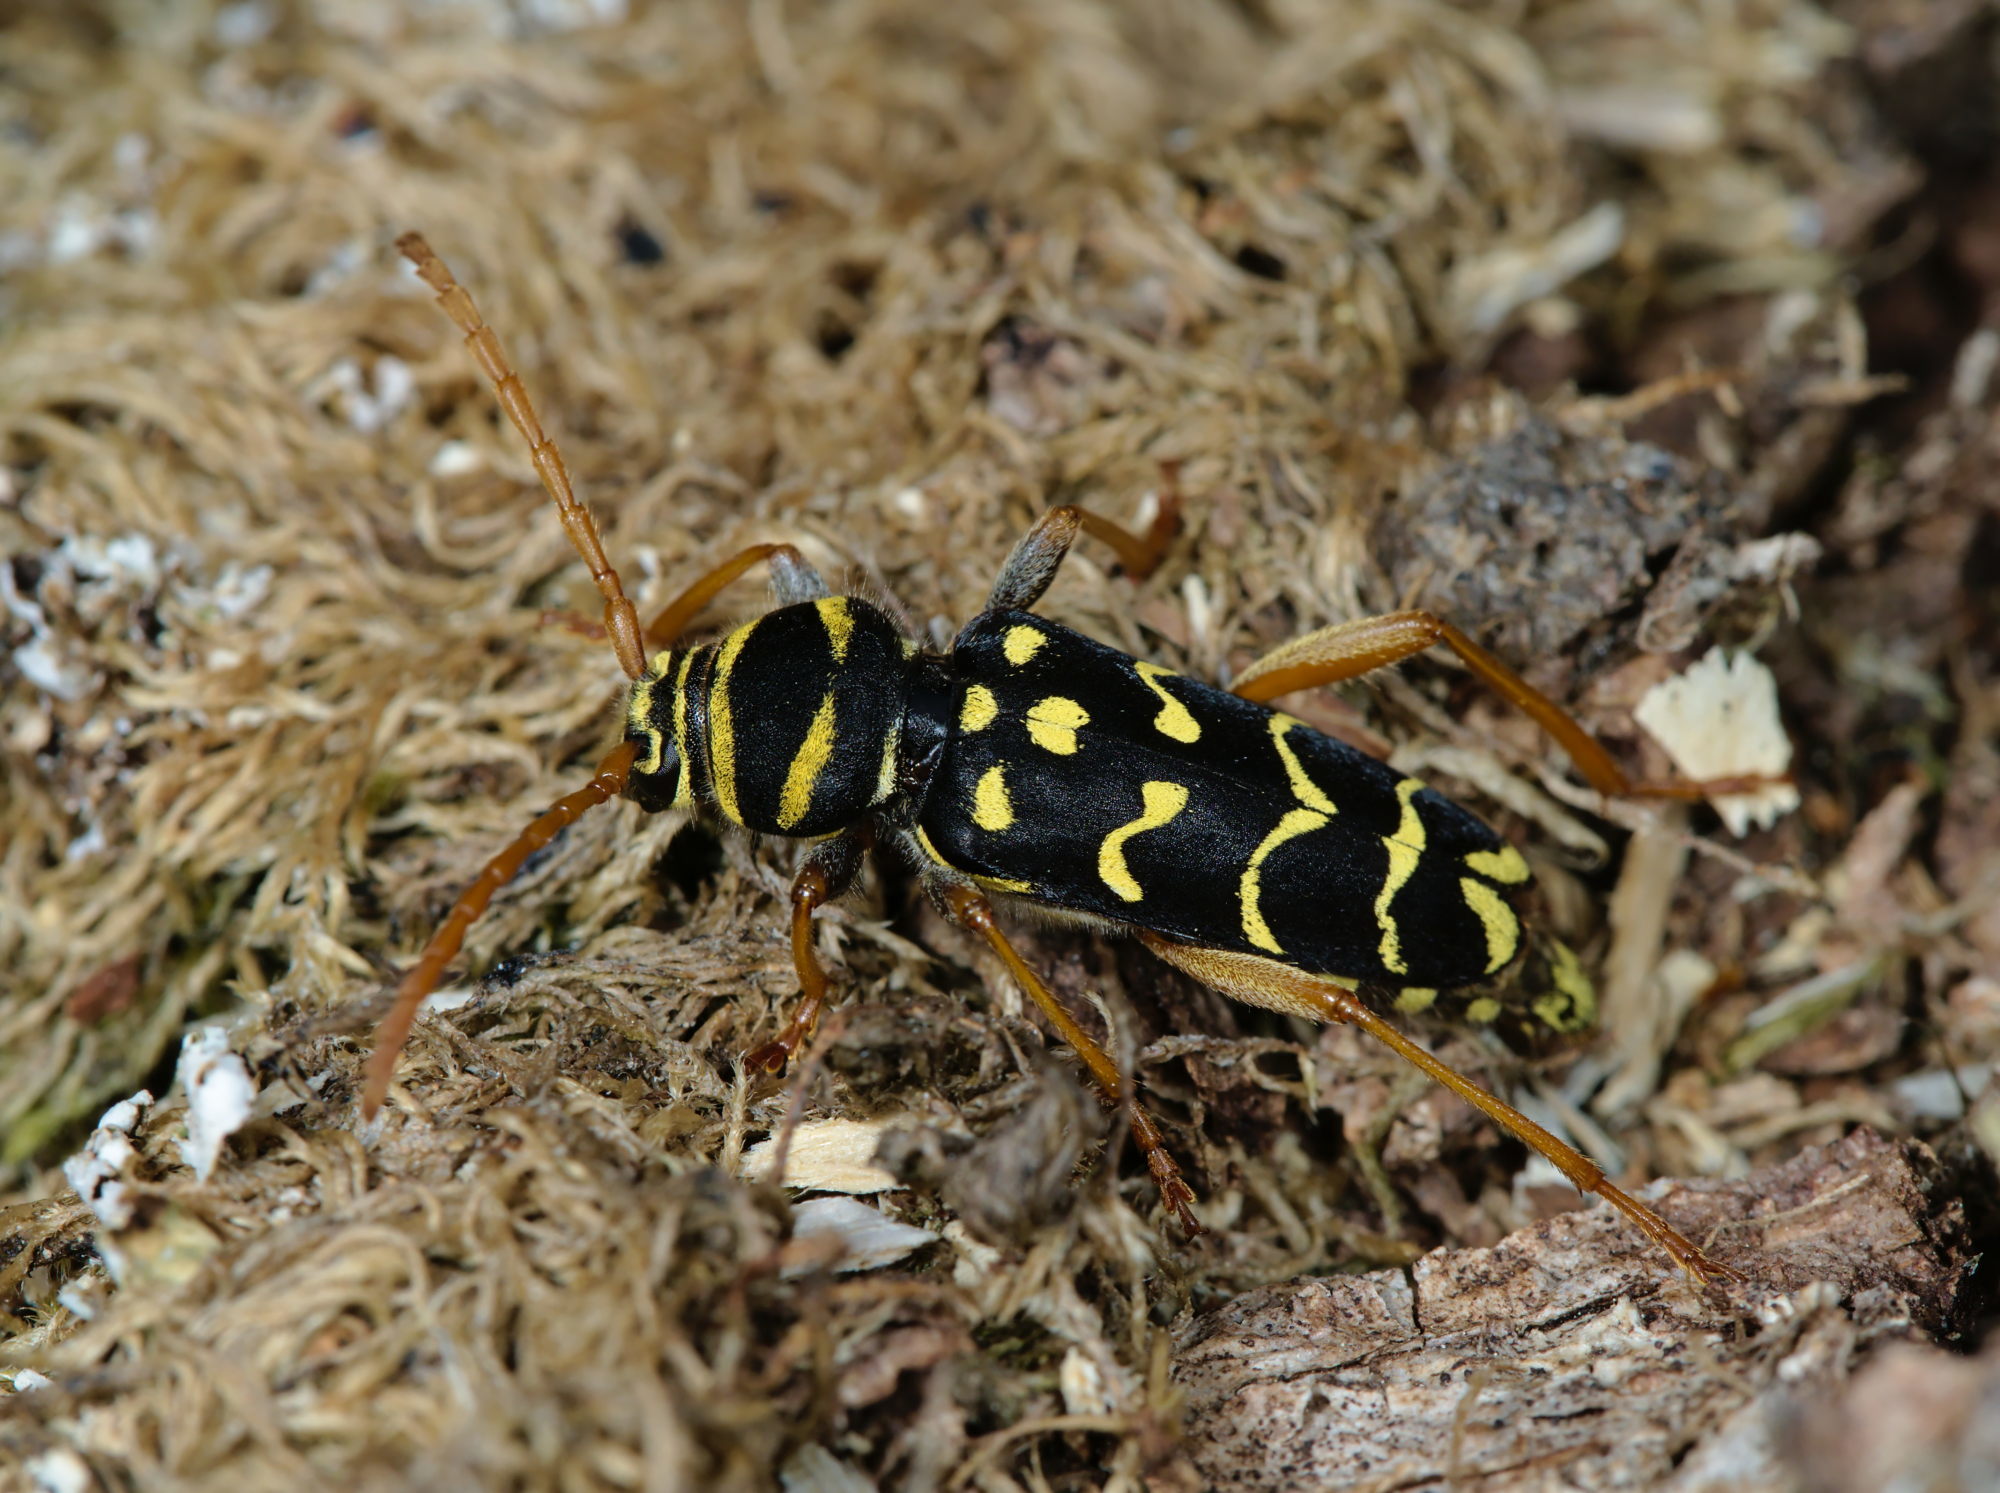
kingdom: Animalia
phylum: Arthropoda
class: Insecta
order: Coleoptera
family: Cerambycidae
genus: Plagionotus
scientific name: Plagionotus arcuatus
